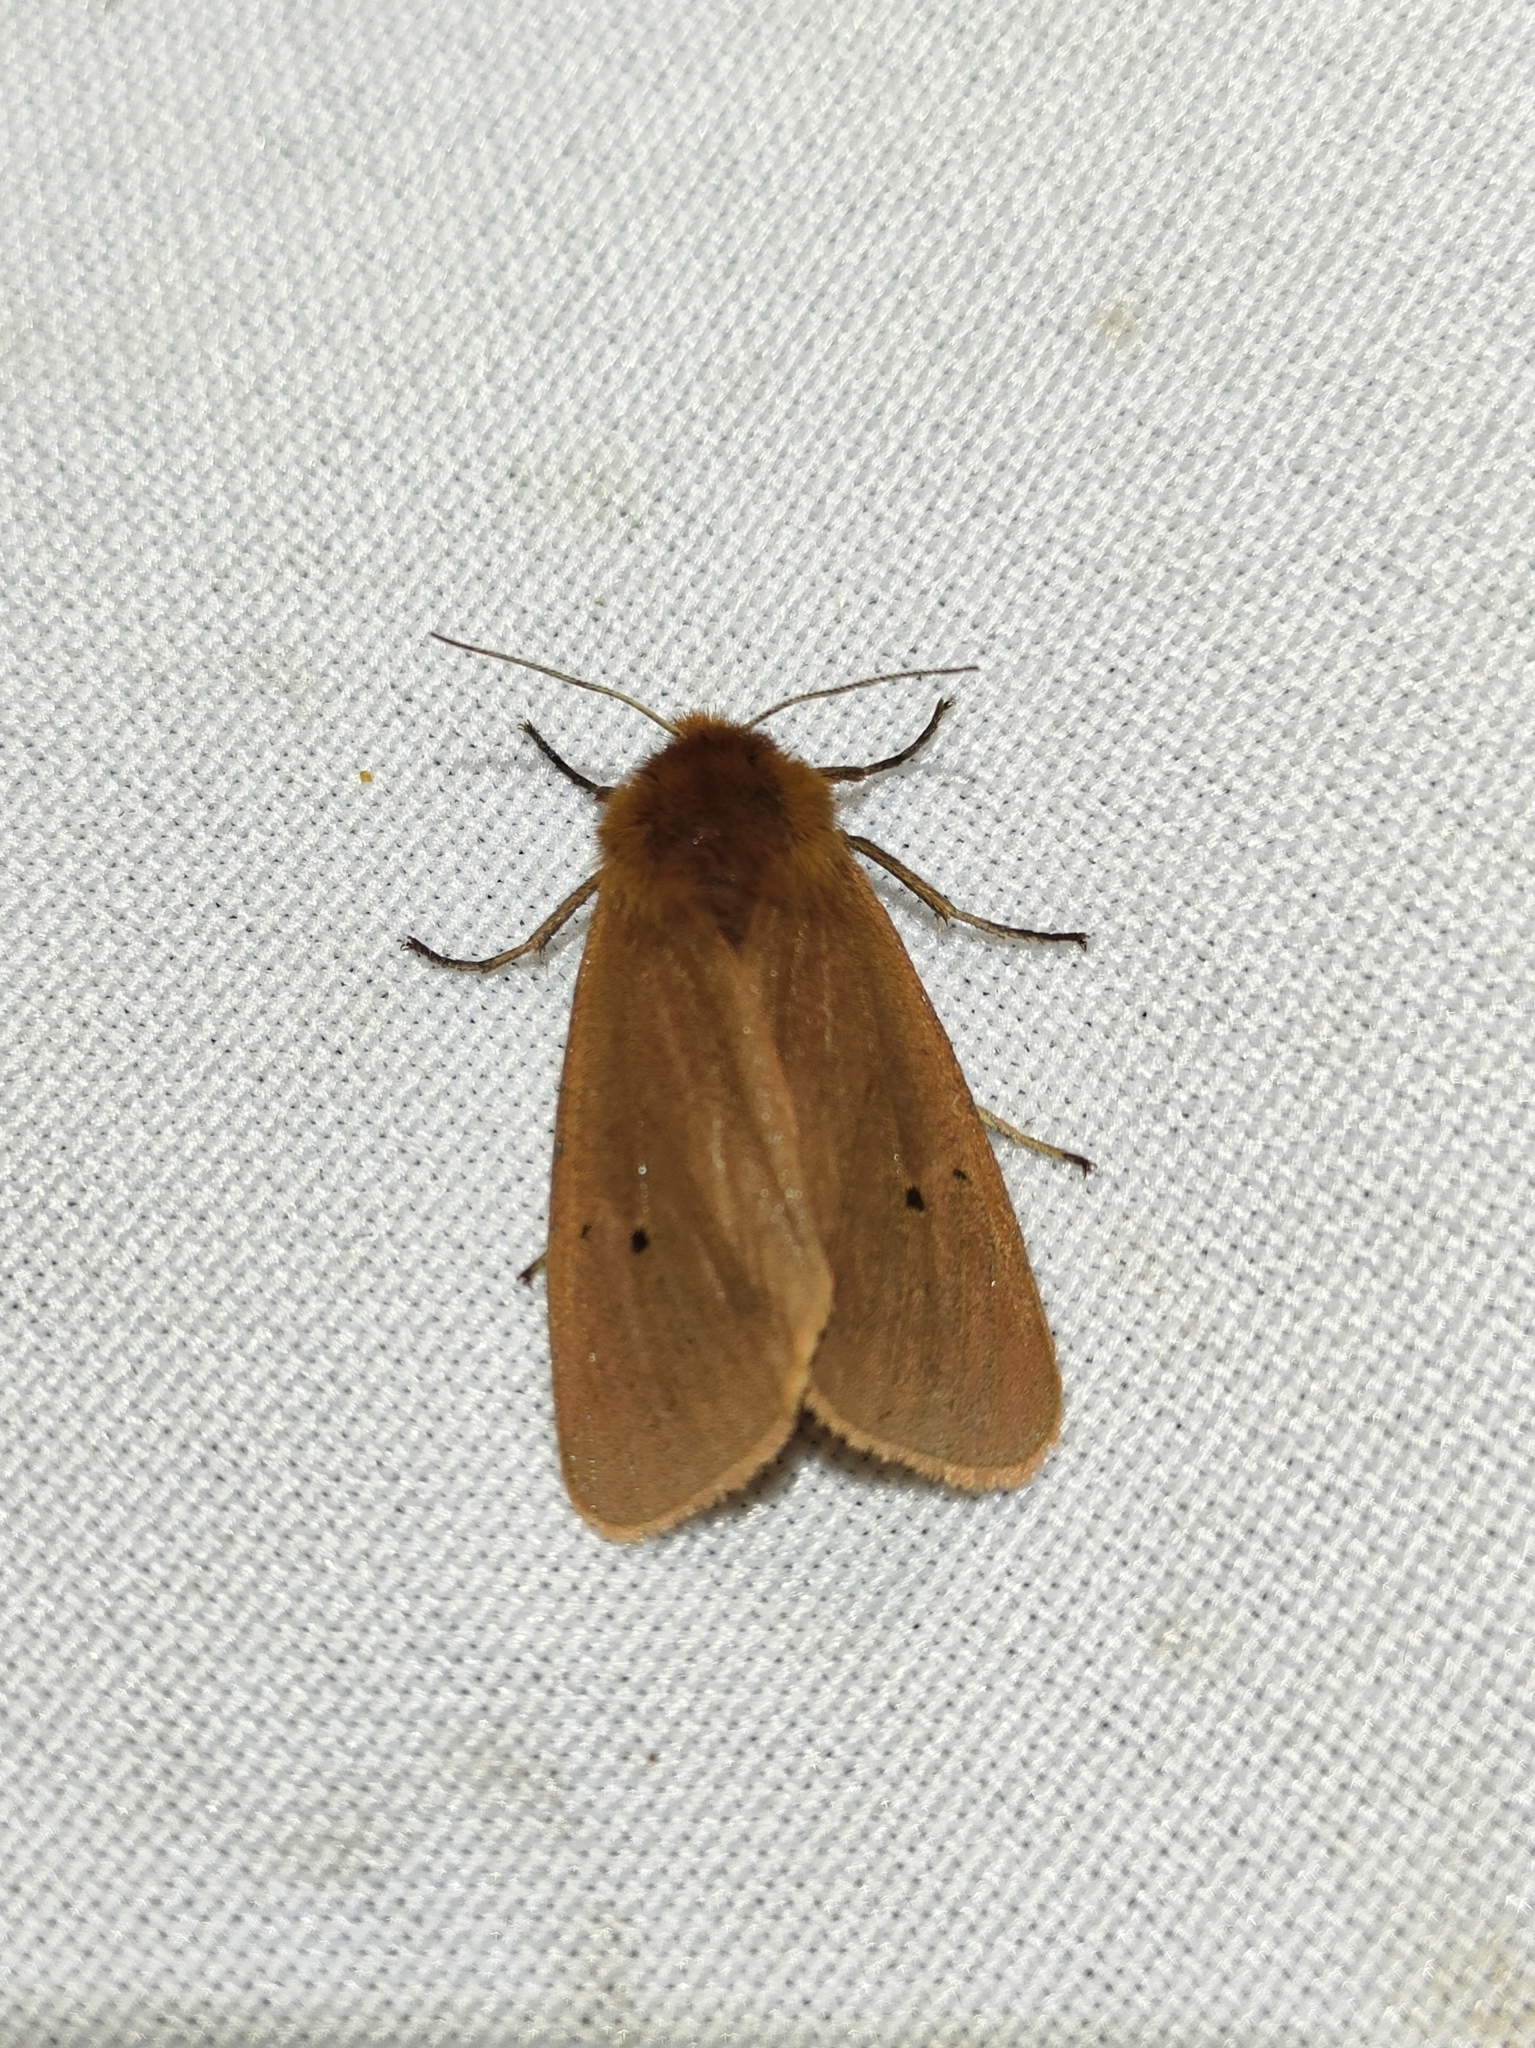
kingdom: Animalia
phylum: Arthropoda
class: Insecta
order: Lepidoptera
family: Erebidae
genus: Phragmatobia
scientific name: Phragmatobia fuliginosa
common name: Ruby tiger
